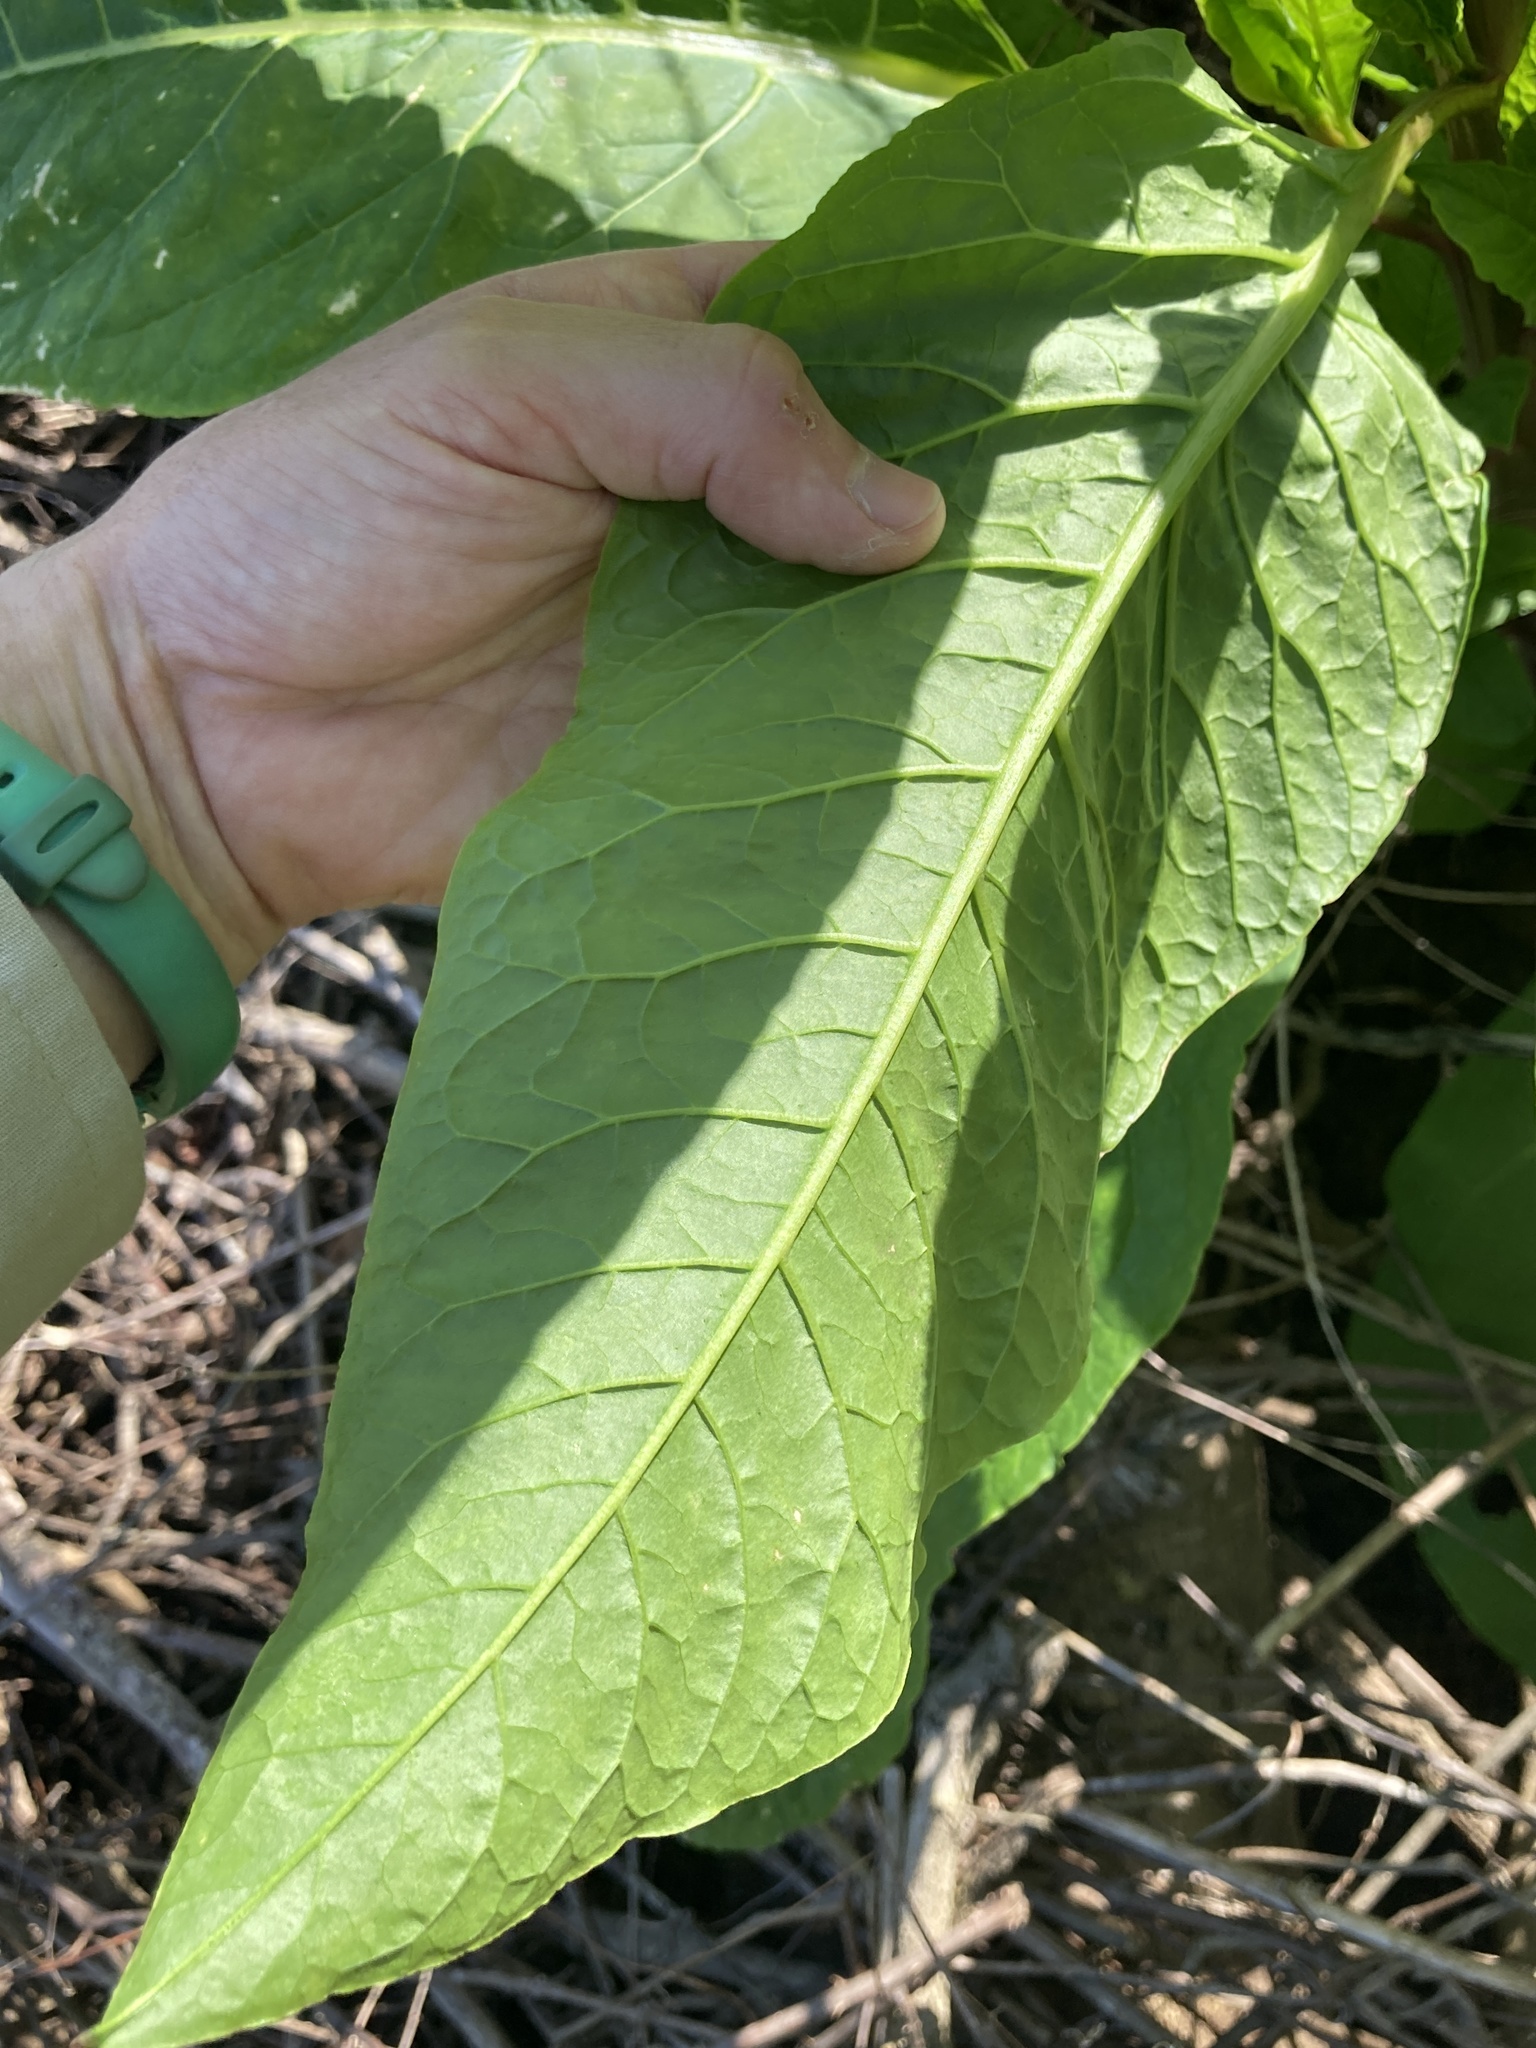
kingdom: Plantae
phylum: Tracheophyta
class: Magnoliopsida
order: Caryophyllales
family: Phytolaccaceae
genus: Phytolacca
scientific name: Phytolacca americana
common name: American pokeweed
